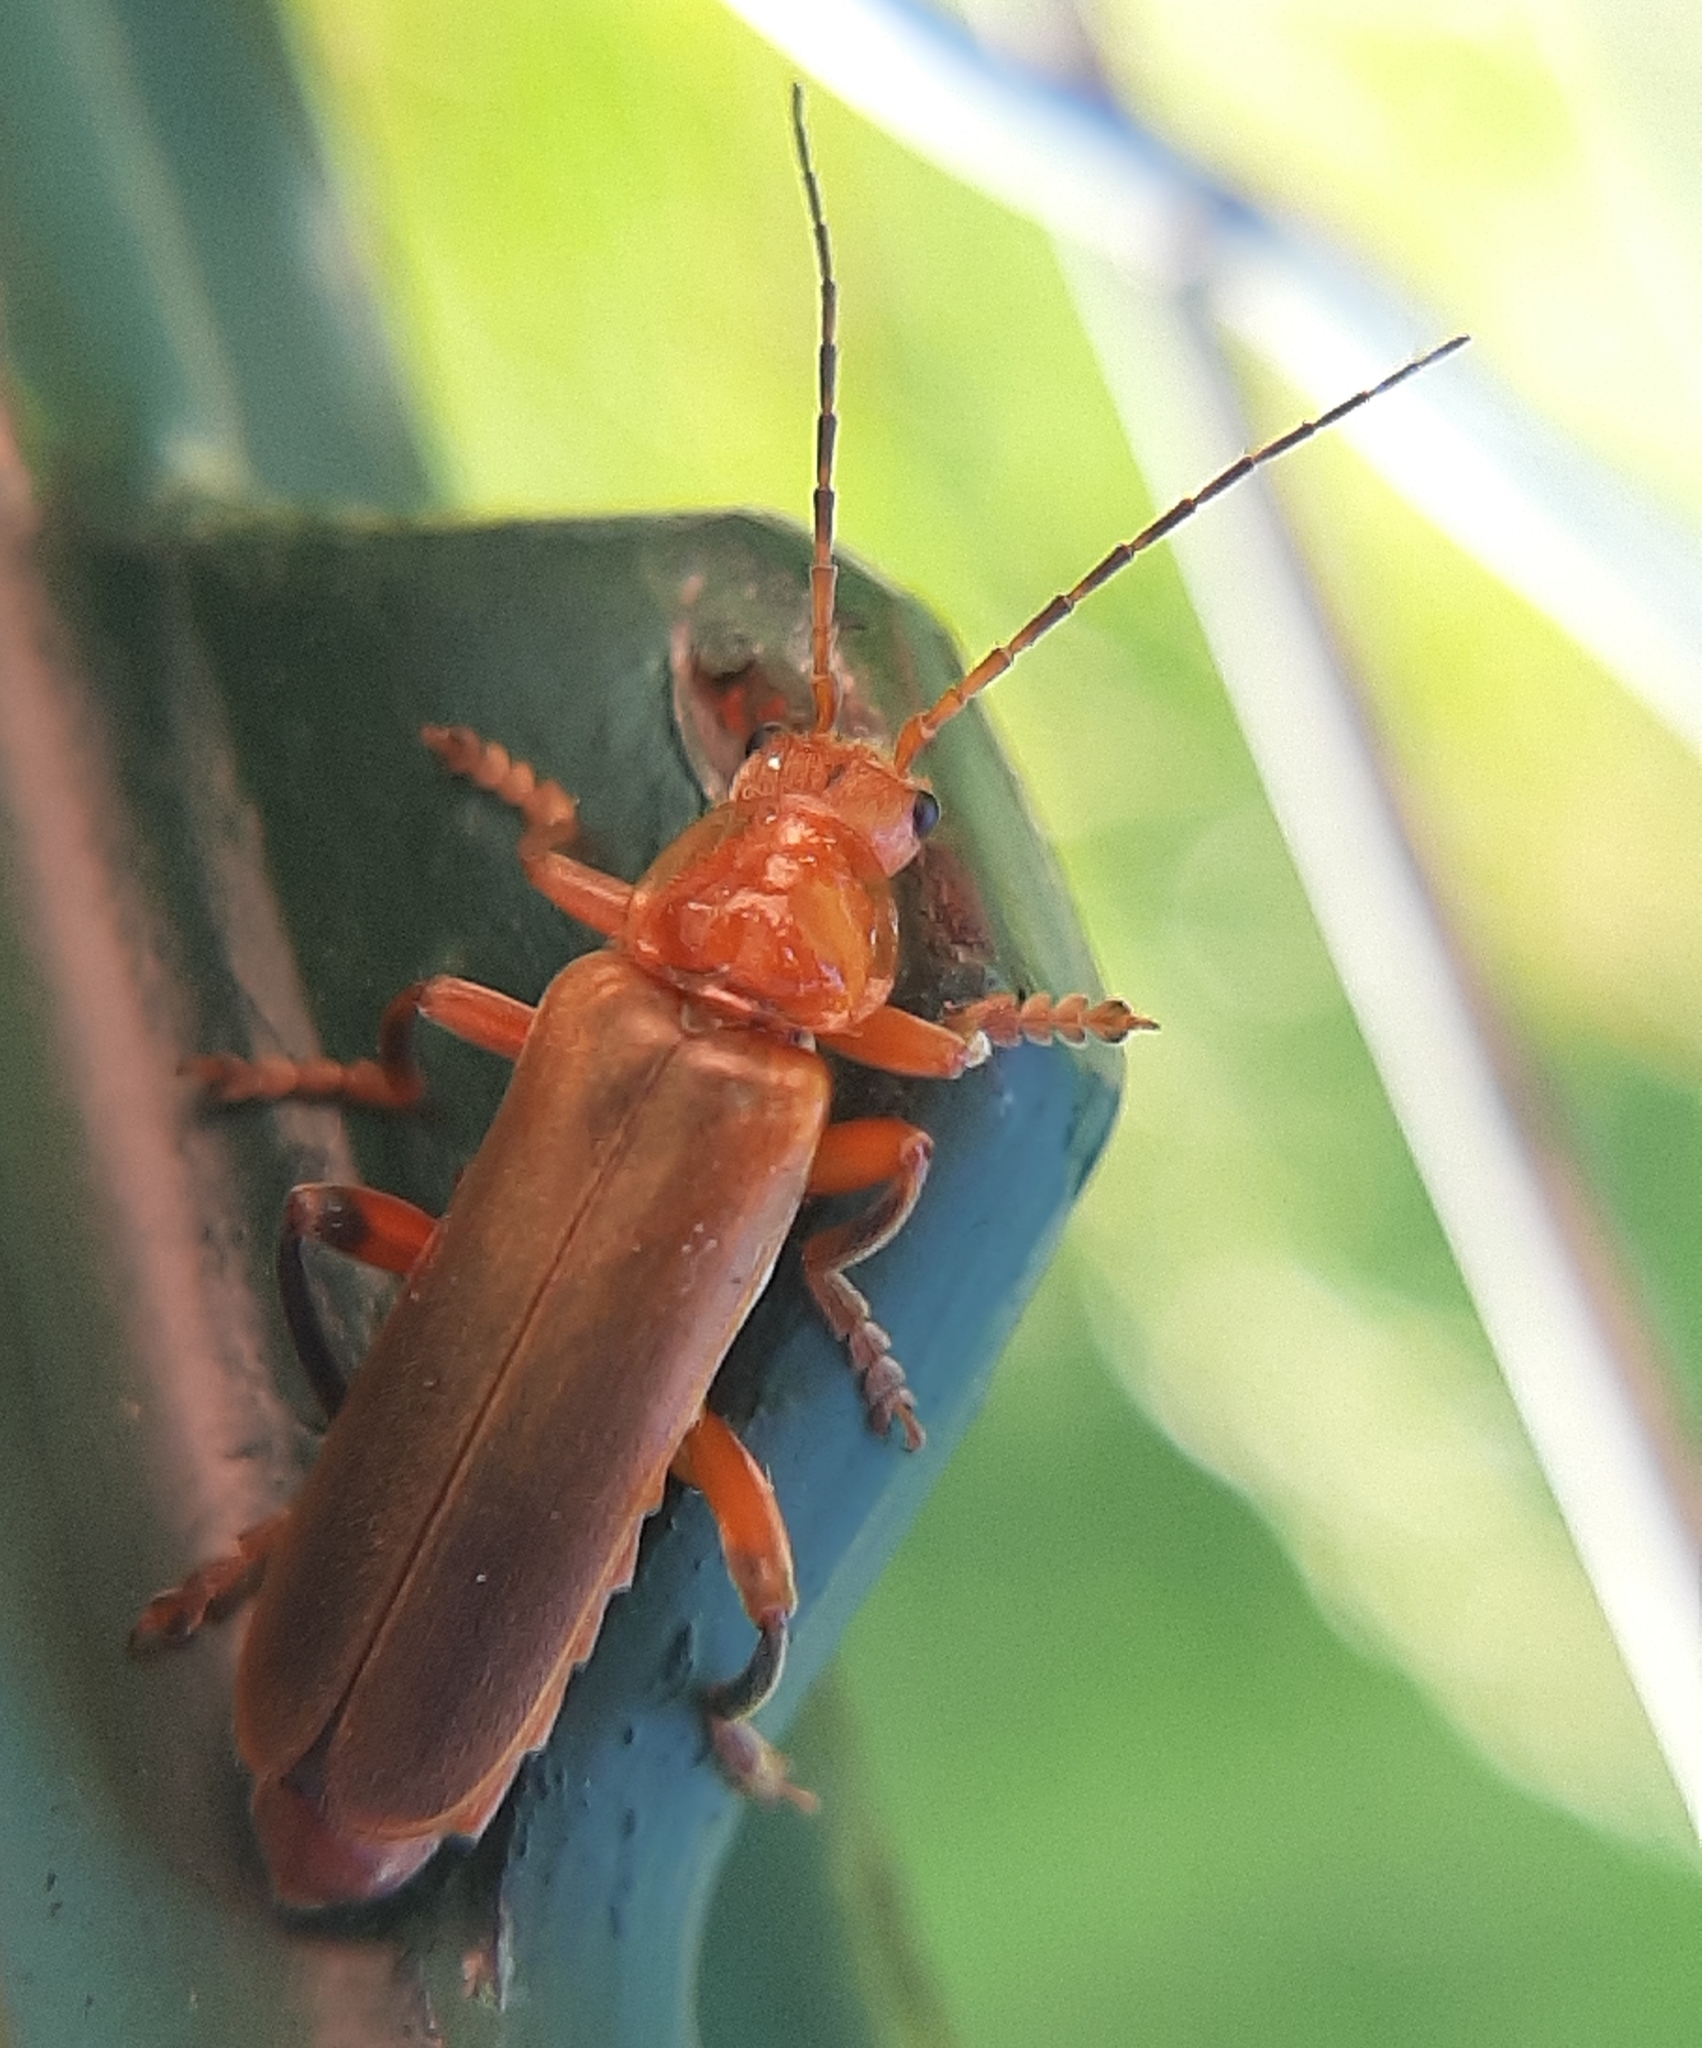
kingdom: Animalia
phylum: Arthropoda
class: Insecta
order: Coleoptera
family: Cantharidae
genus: Cantharis
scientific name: Cantharis livida
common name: Livid soldier beetle
